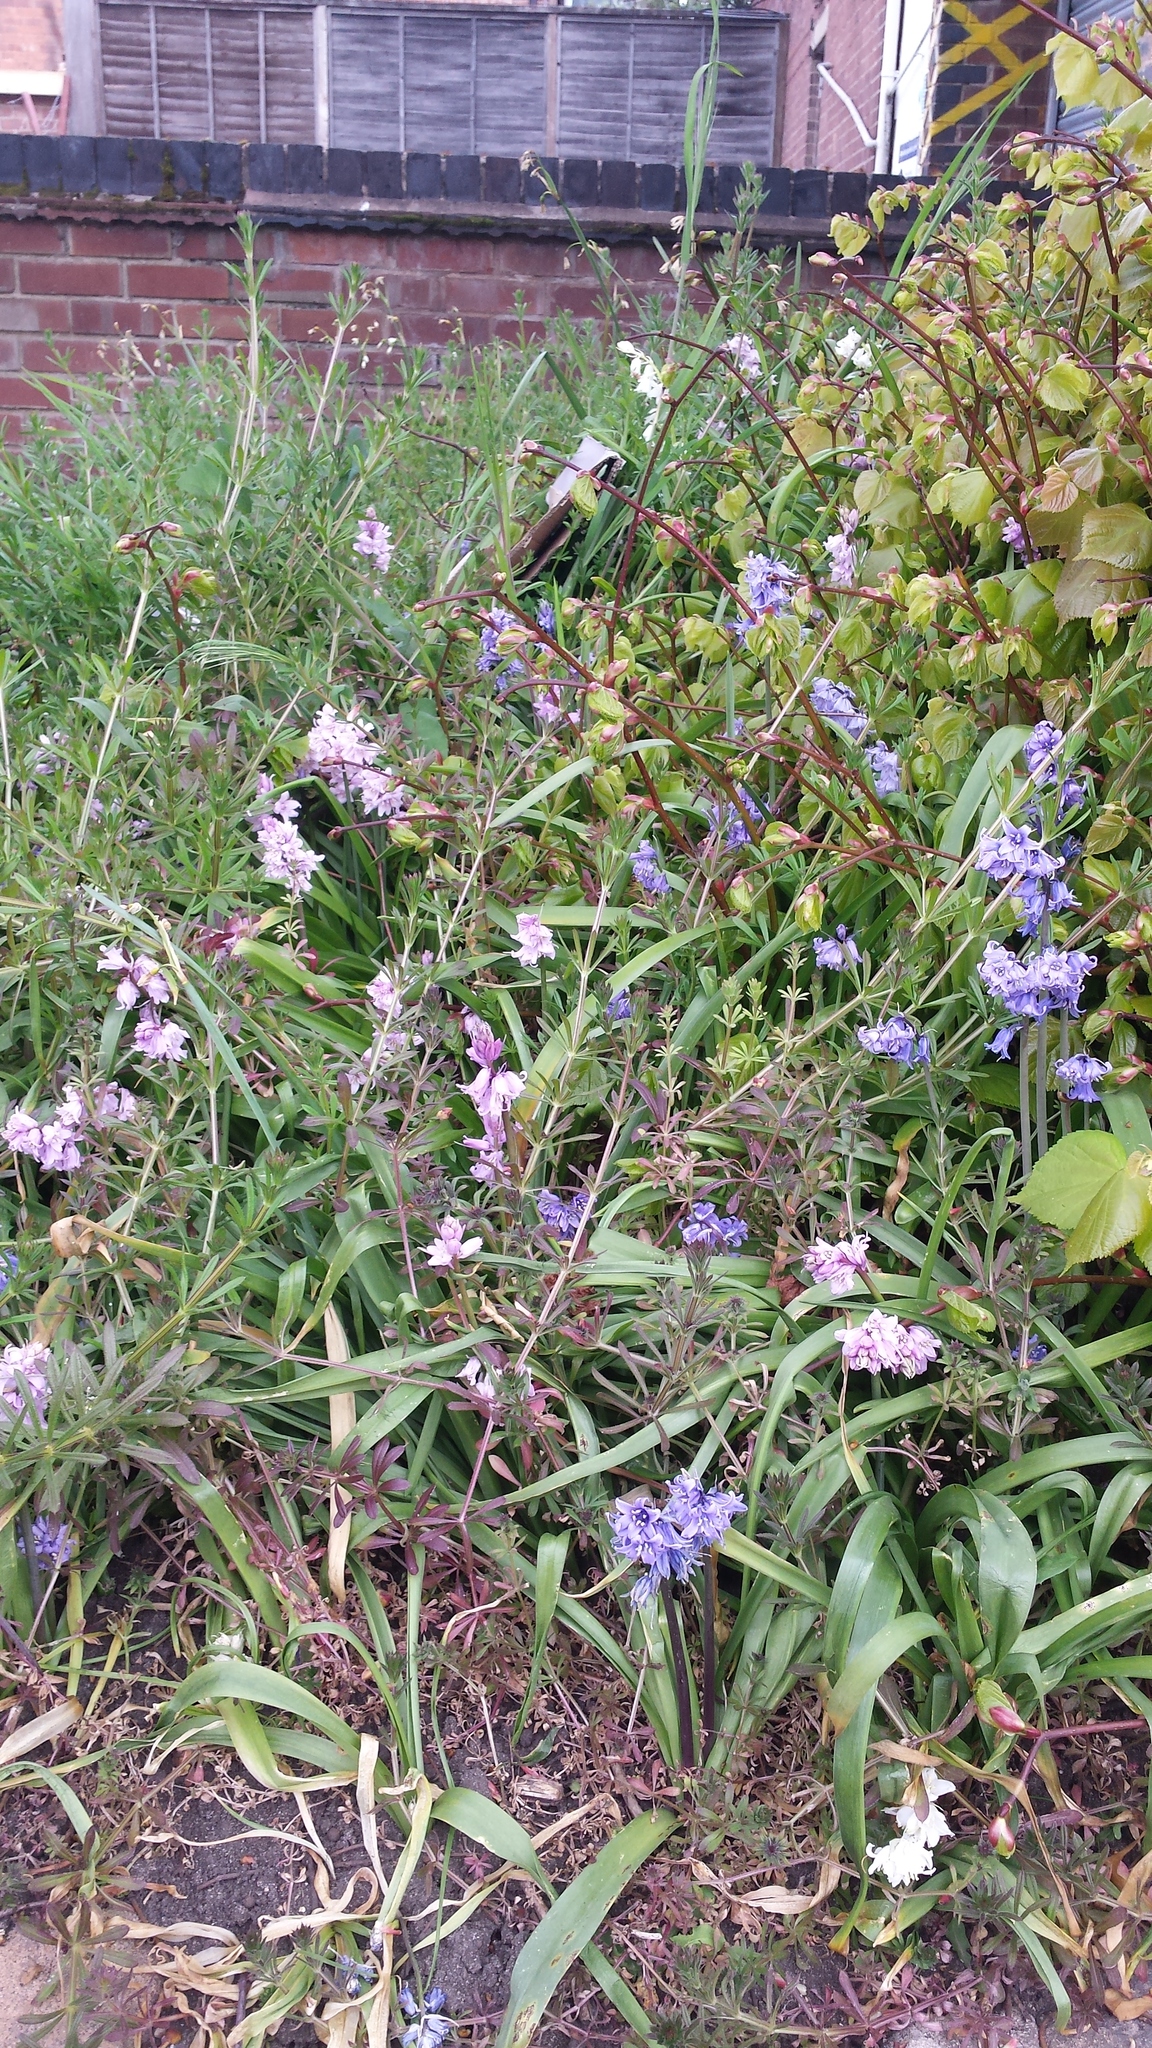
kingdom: Plantae
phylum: Tracheophyta
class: Liliopsida
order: Asparagales
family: Asparagaceae
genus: Hyacinthoides
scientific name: Hyacinthoides massartiana
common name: Hyacinthoides
